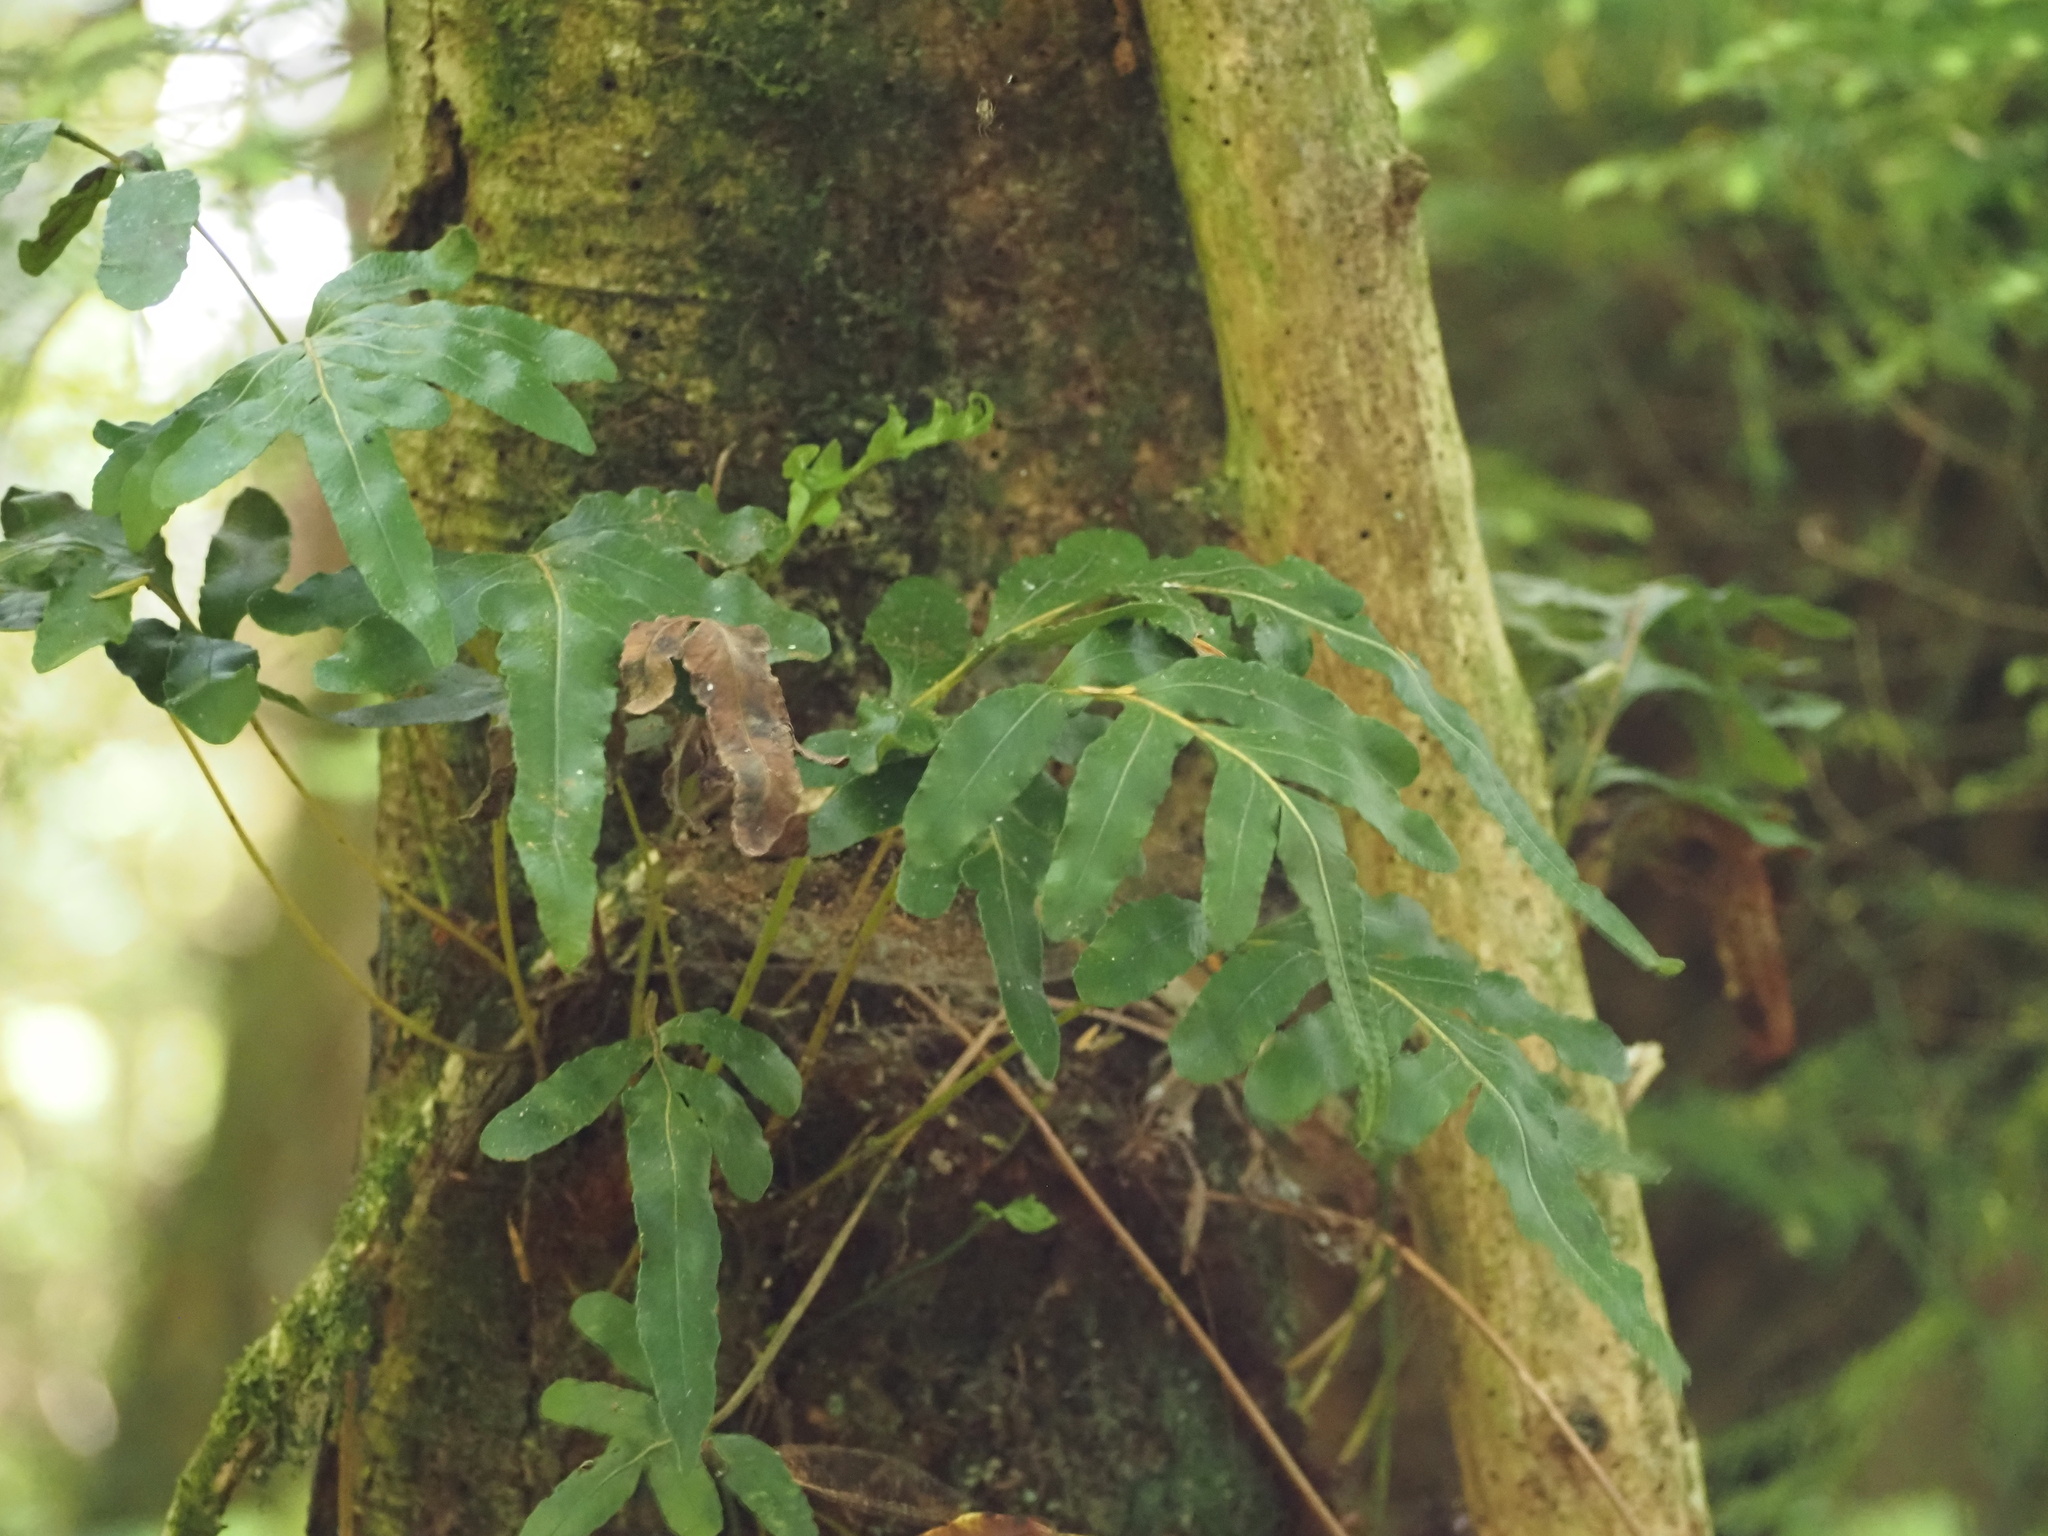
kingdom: Plantae
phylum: Tracheophyta
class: Polypodiopsida
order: Polypodiales
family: Polypodiaceae
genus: Polypodium
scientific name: Polypodium scouleri
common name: Scouler's polypody
